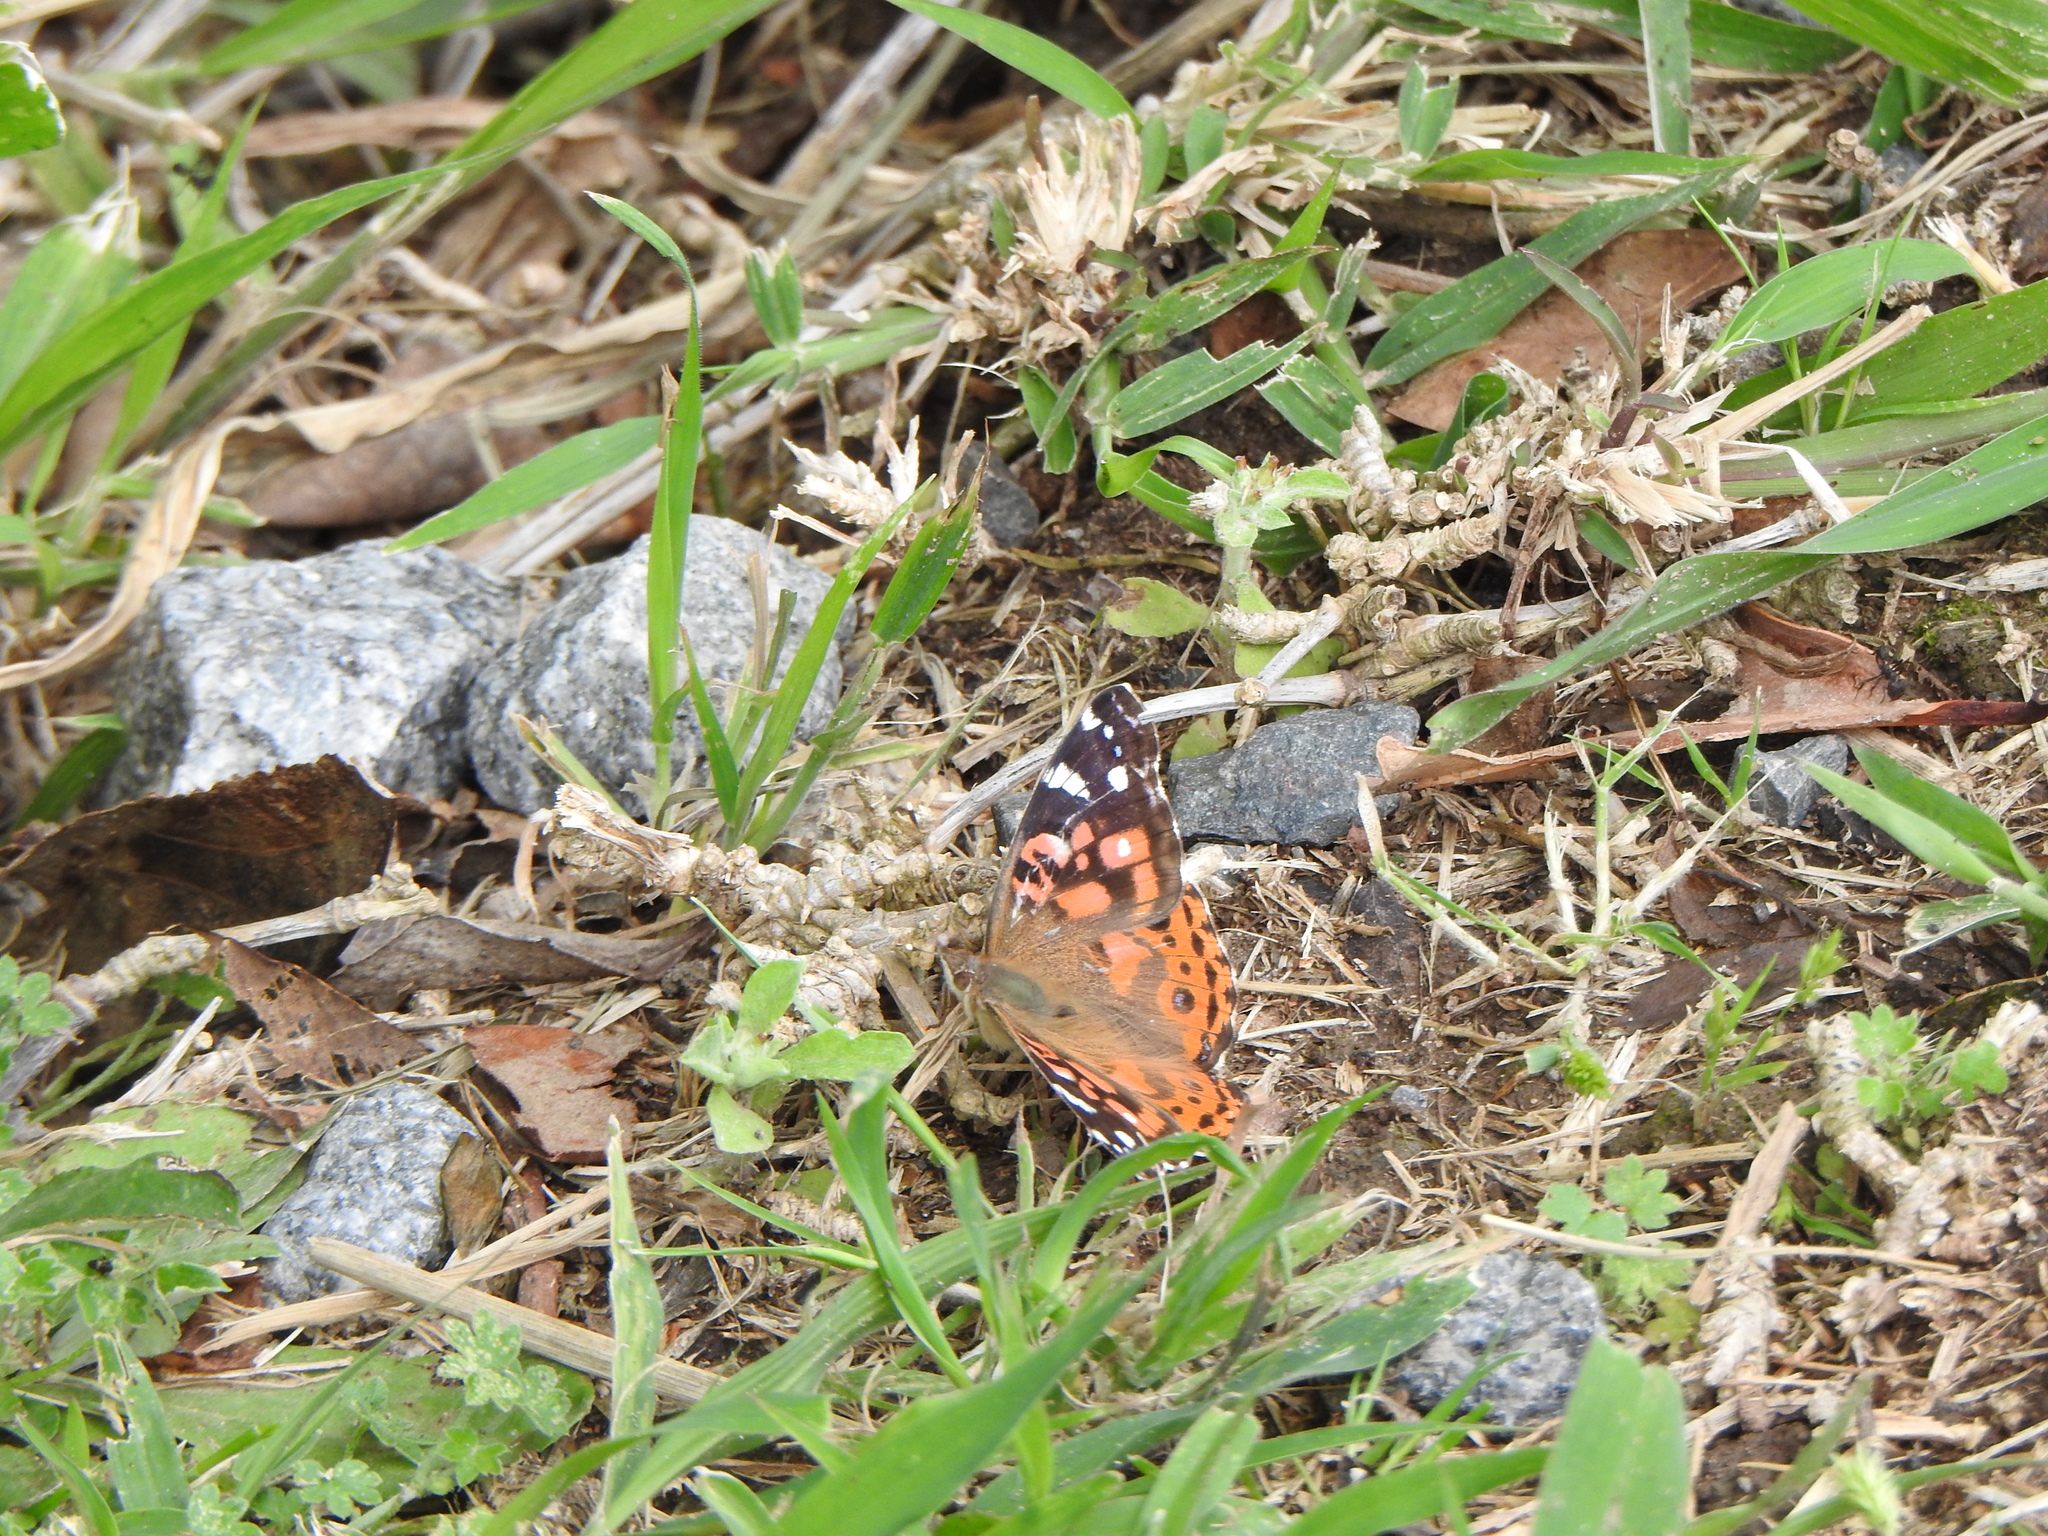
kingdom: Animalia
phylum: Arthropoda
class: Insecta
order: Lepidoptera
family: Nymphalidae
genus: Vanessa
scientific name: Vanessa braziliensis
